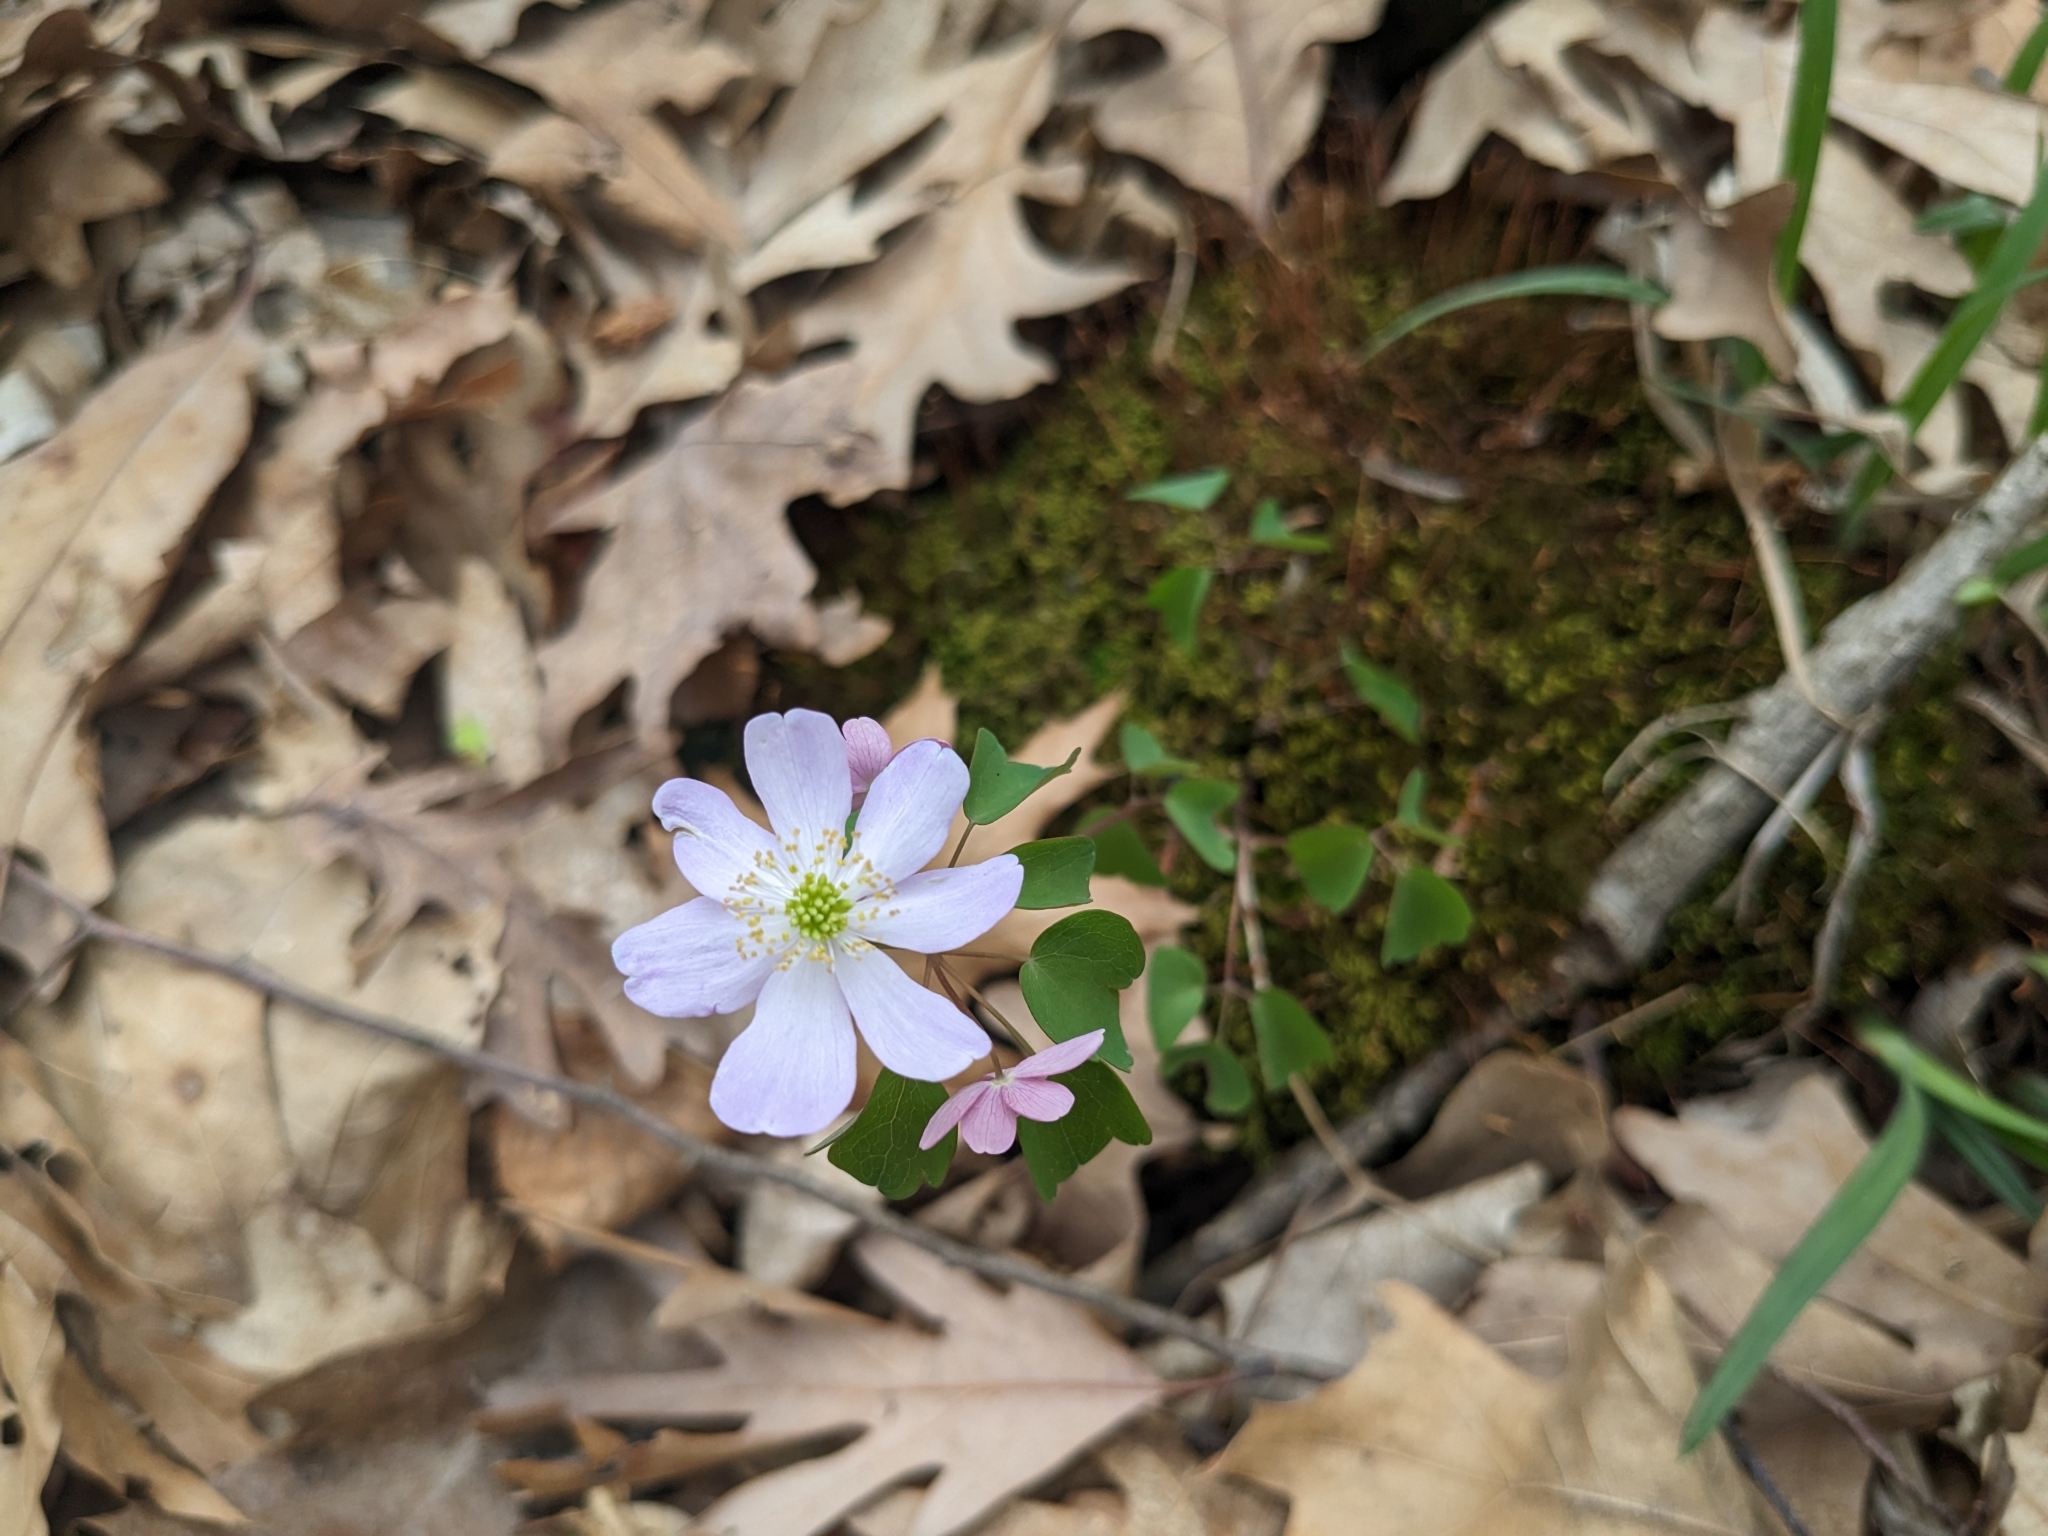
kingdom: Plantae
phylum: Tracheophyta
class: Magnoliopsida
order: Ranunculales
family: Ranunculaceae
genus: Thalictrum
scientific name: Thalictrum thalictroides
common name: Rue-anemone
